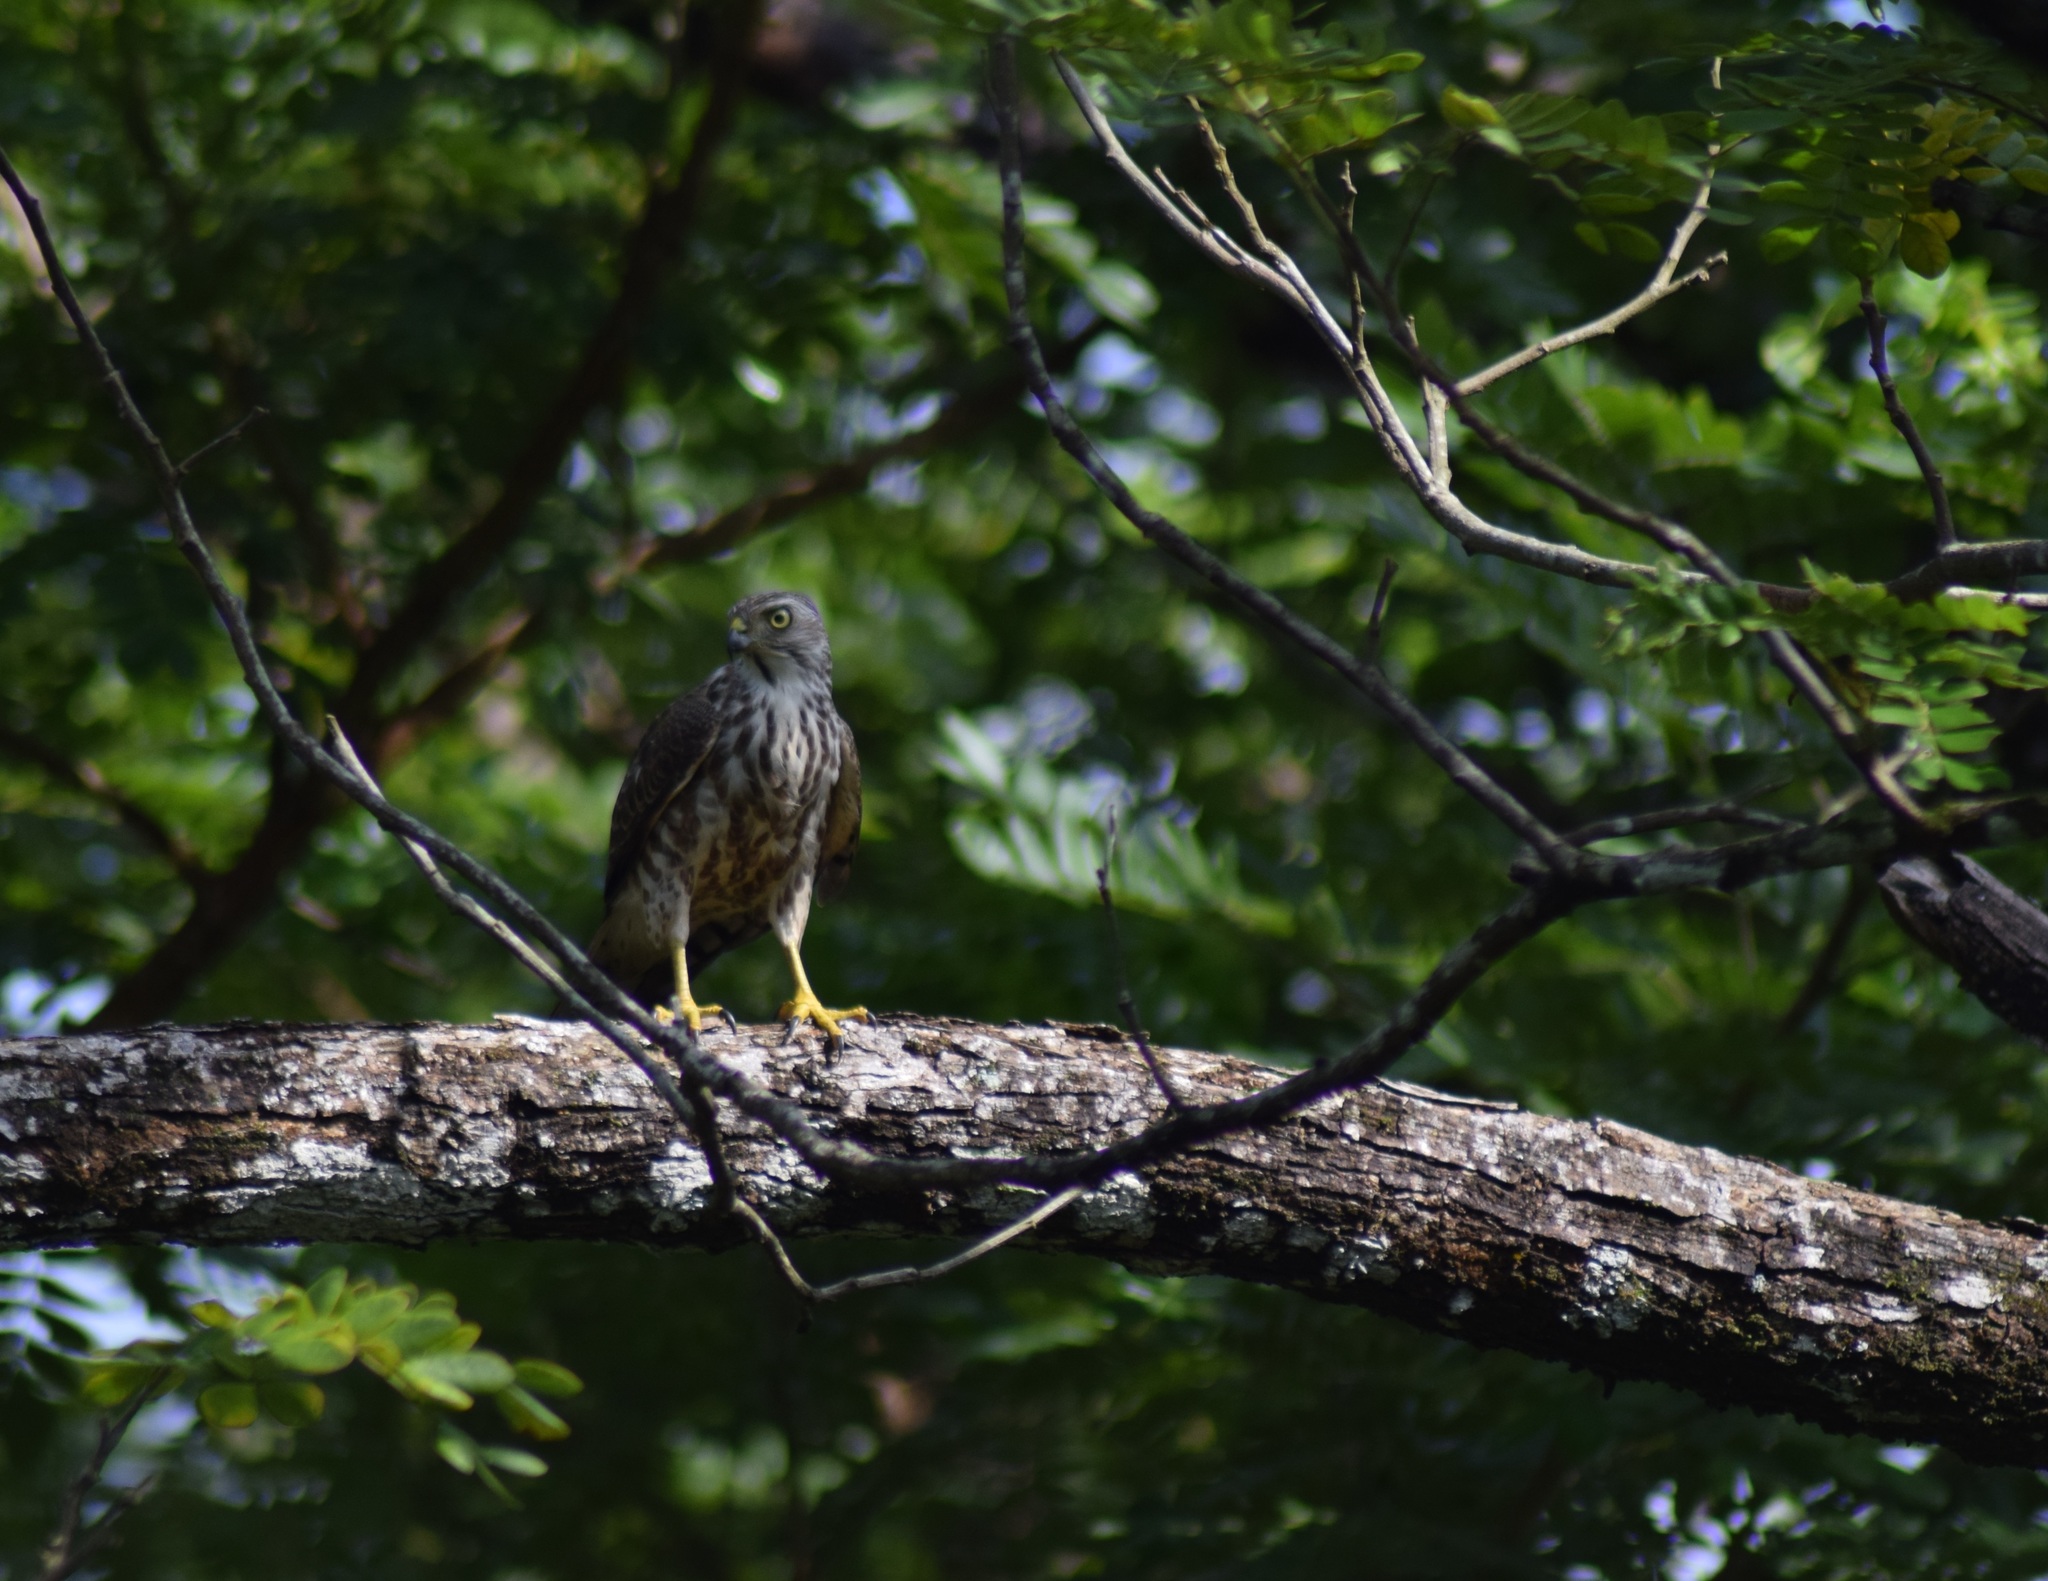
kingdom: Animalia
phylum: Chordata
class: Aves
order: Accipitriformes
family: Accipitridae
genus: Accipiter
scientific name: Accipiter badius
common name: Shikra
